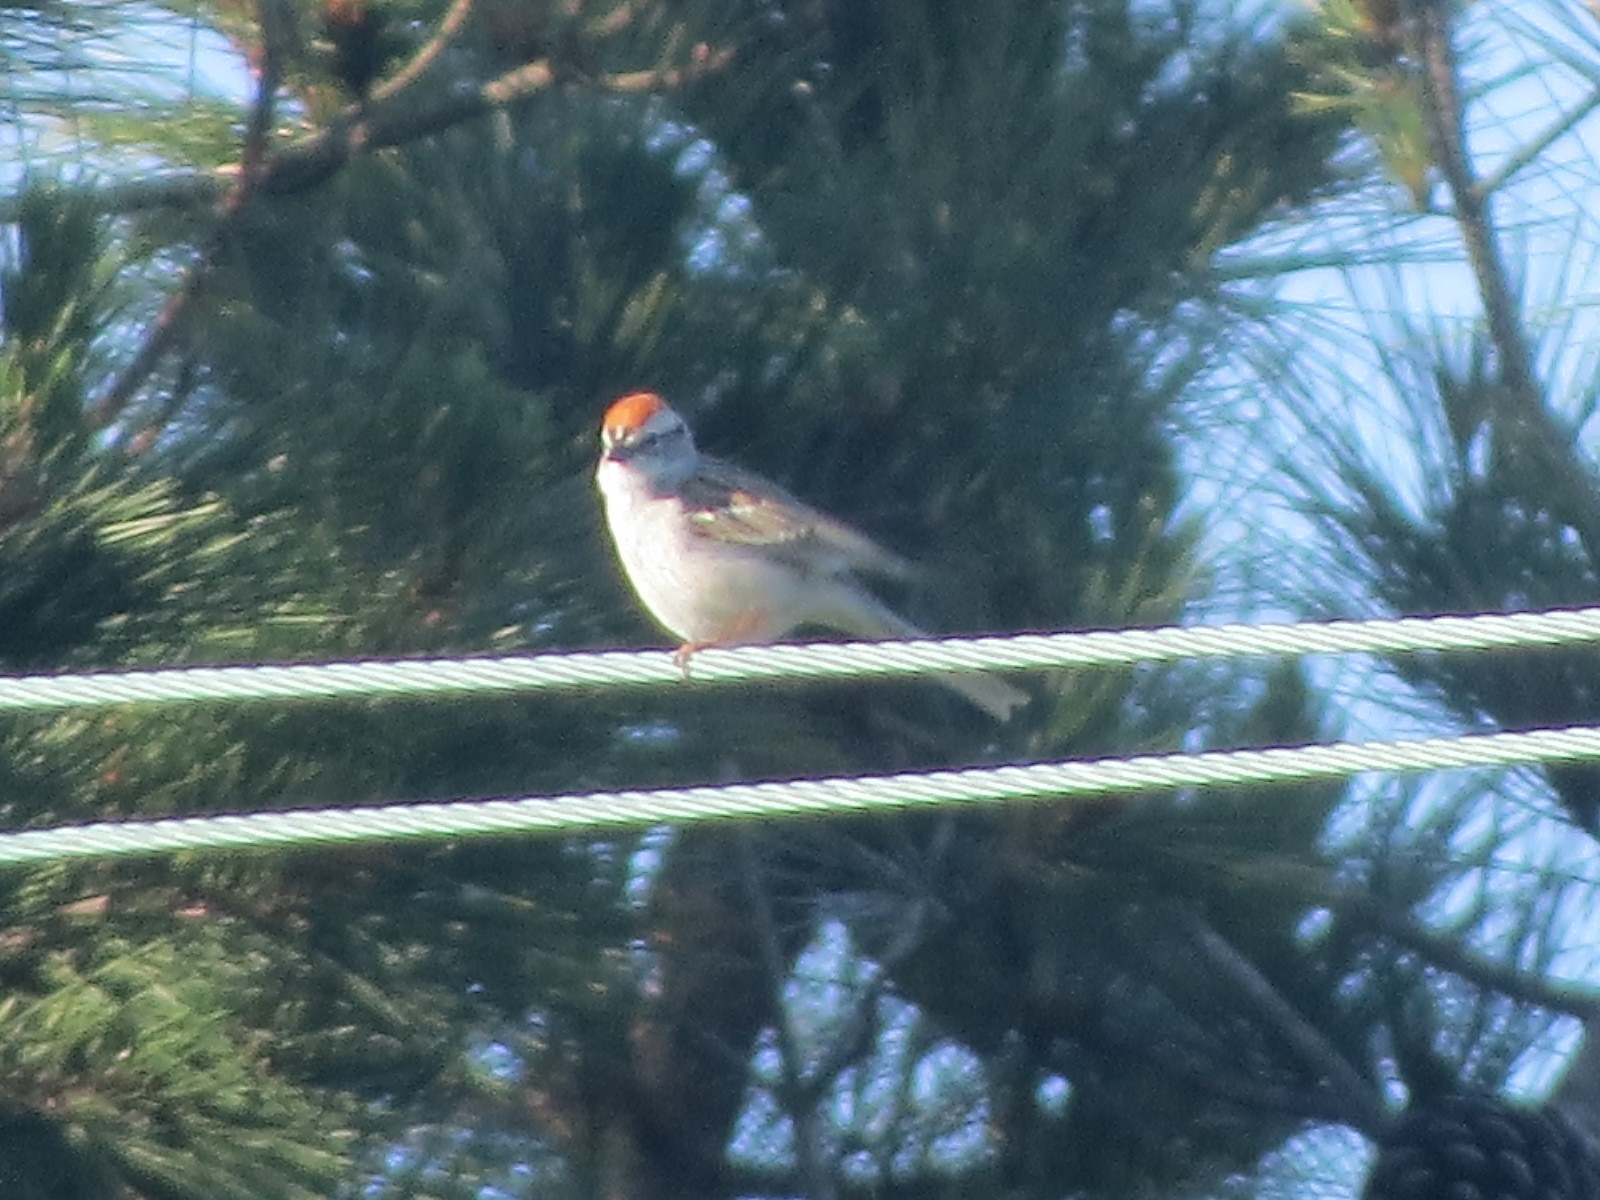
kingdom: Animalia
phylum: Chordata
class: Aves
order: Passeriformes
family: Passerellidae
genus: Spizella
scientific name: Spizella passerina
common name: Chipping sparrow
